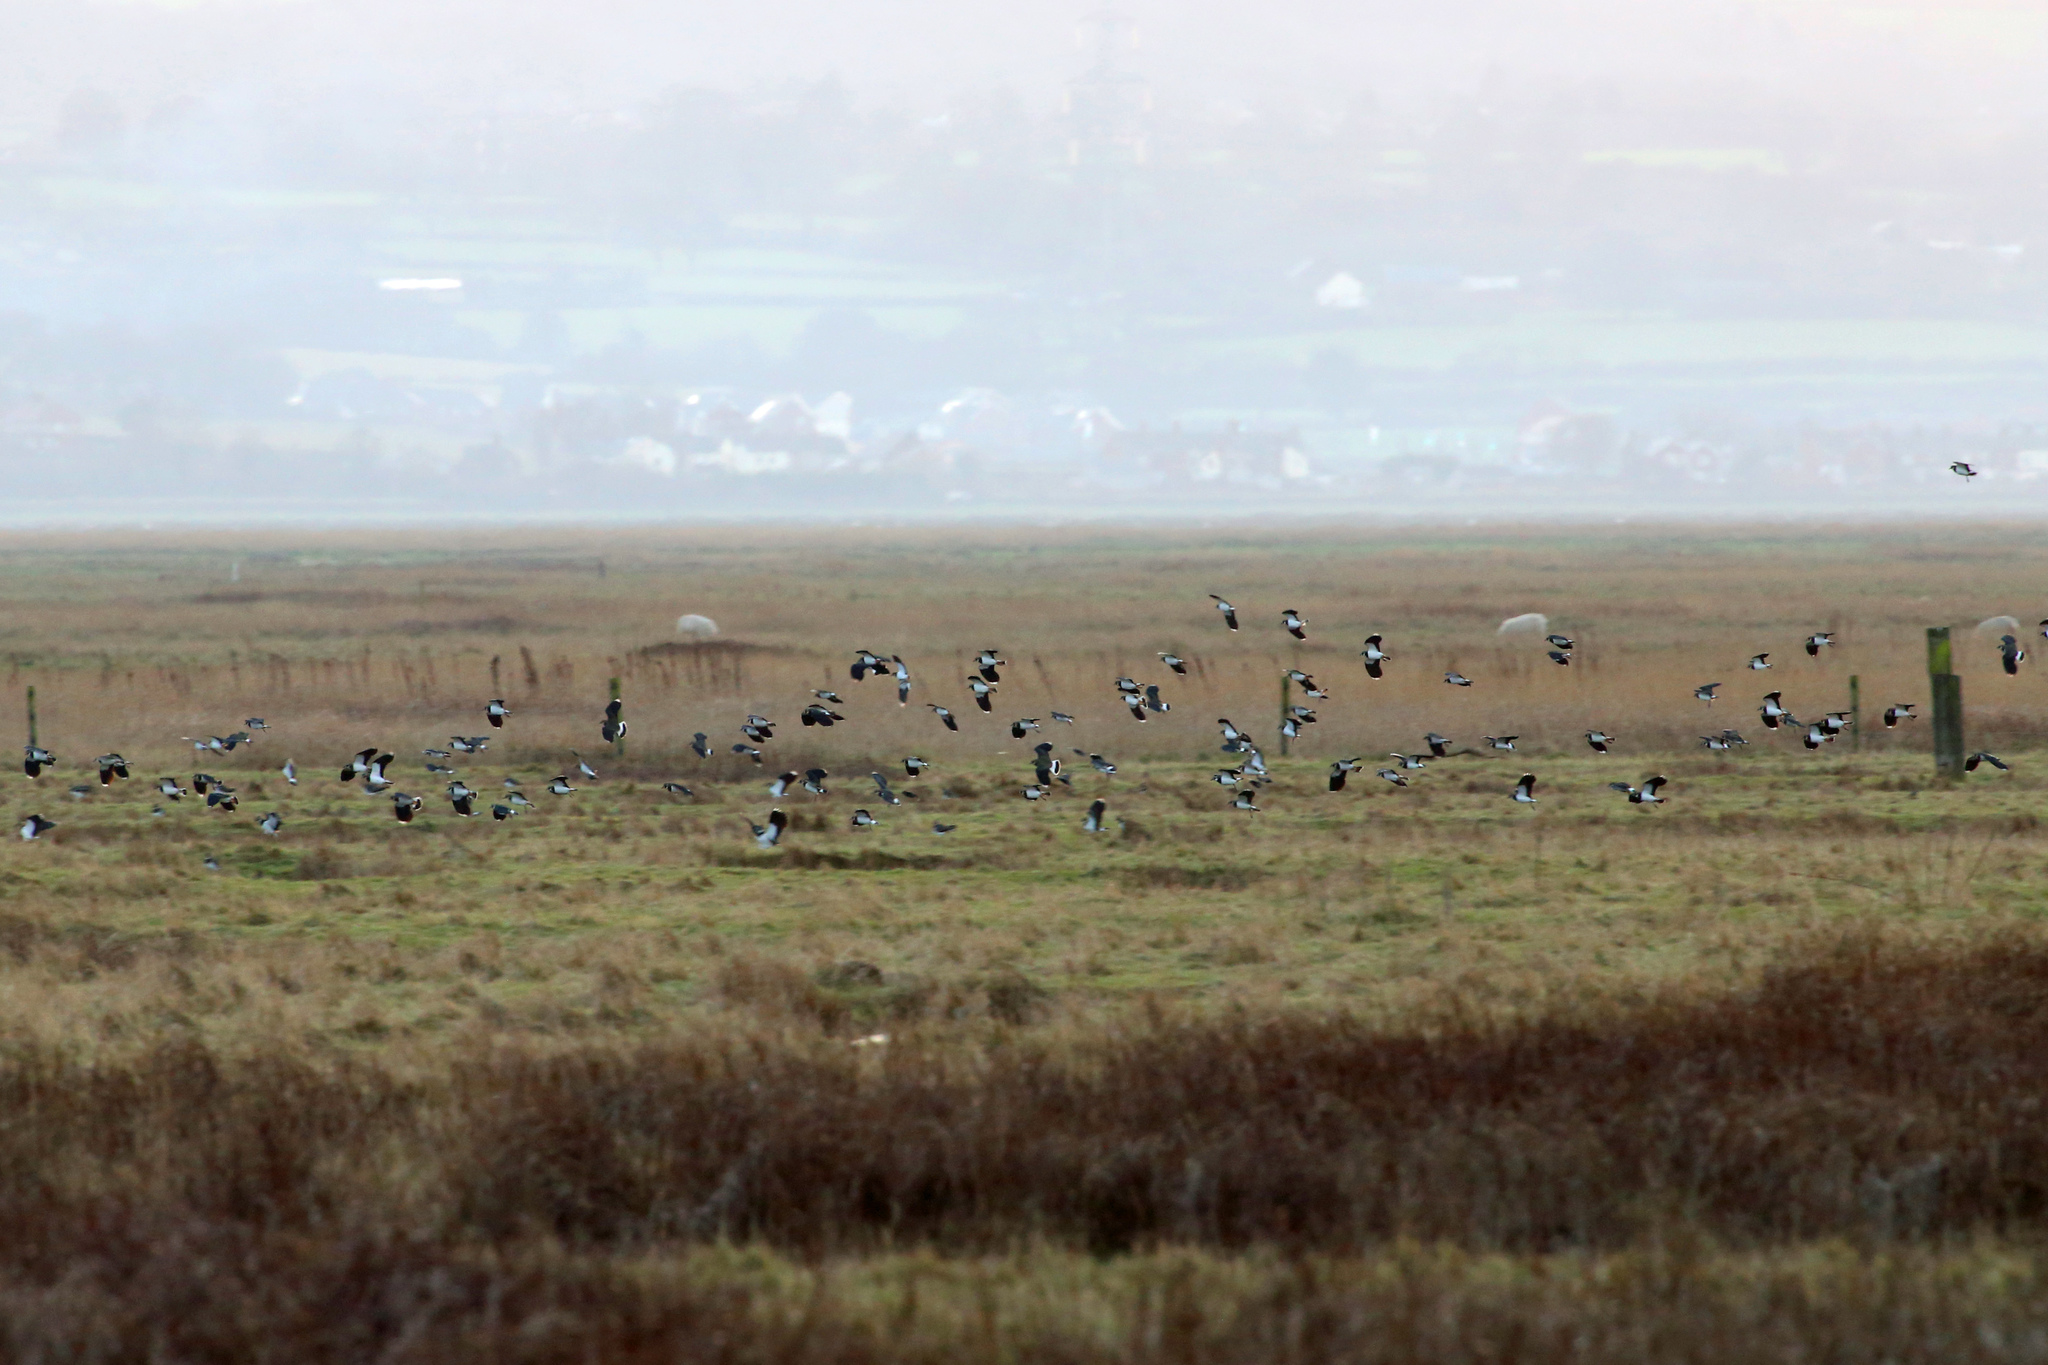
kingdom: Animalia
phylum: Chordata
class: Aves
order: Charadriiformes
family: Charadriidae
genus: Vanellus
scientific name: Vanellus vanellus
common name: Northern lapwing
